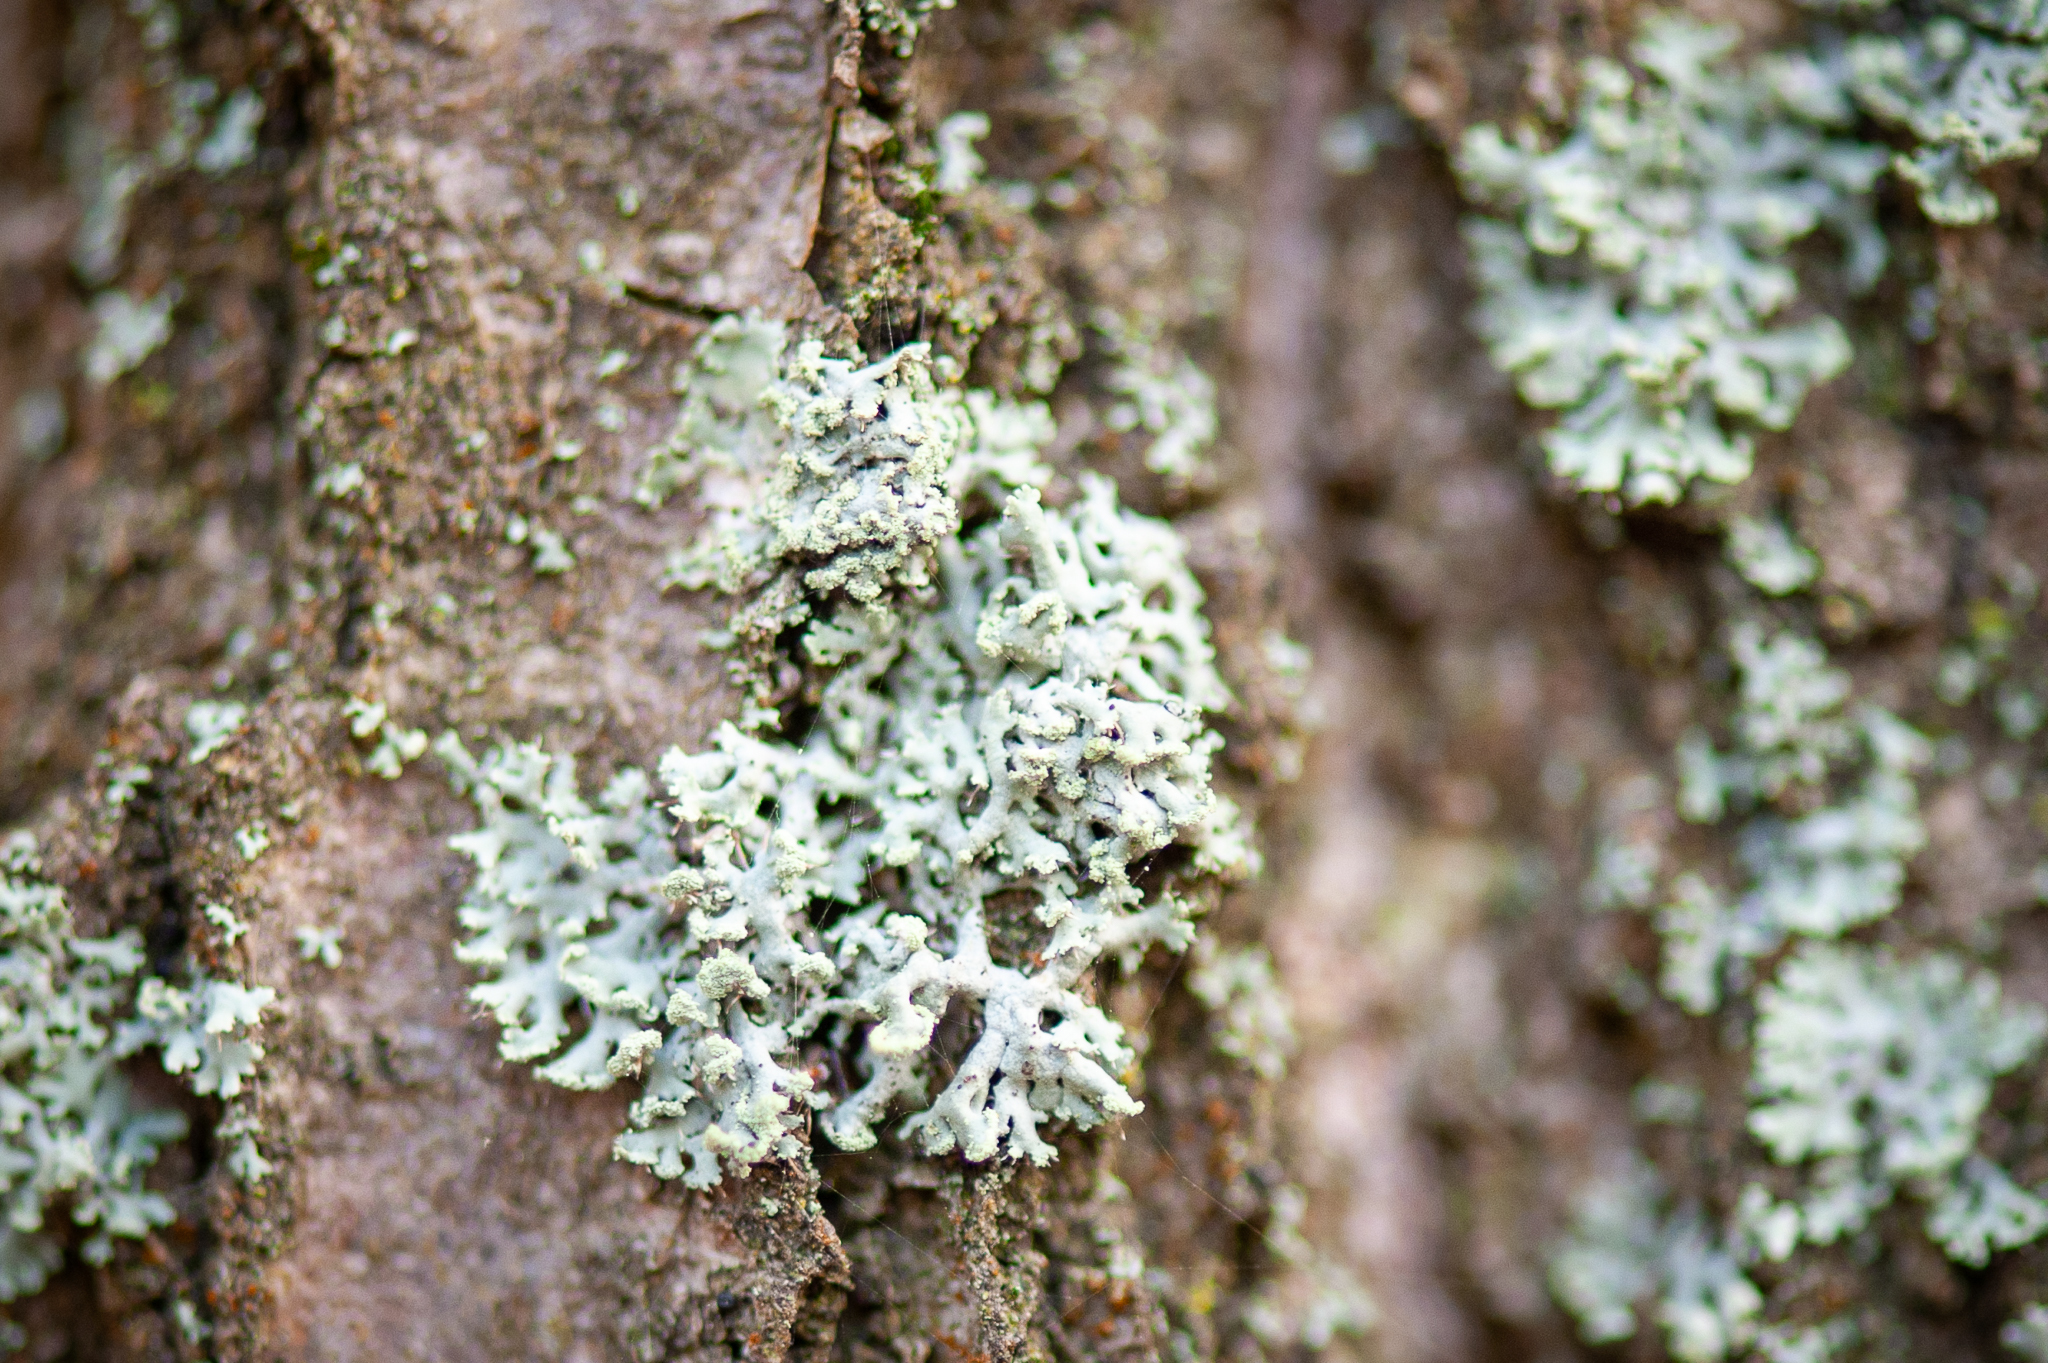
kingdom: Fungi
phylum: Ascomycota
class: Lecanoromycetes
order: Caliciales
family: Physciaceae
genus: Physcia
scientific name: Physcia tenella
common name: Fringed rosette lichen
